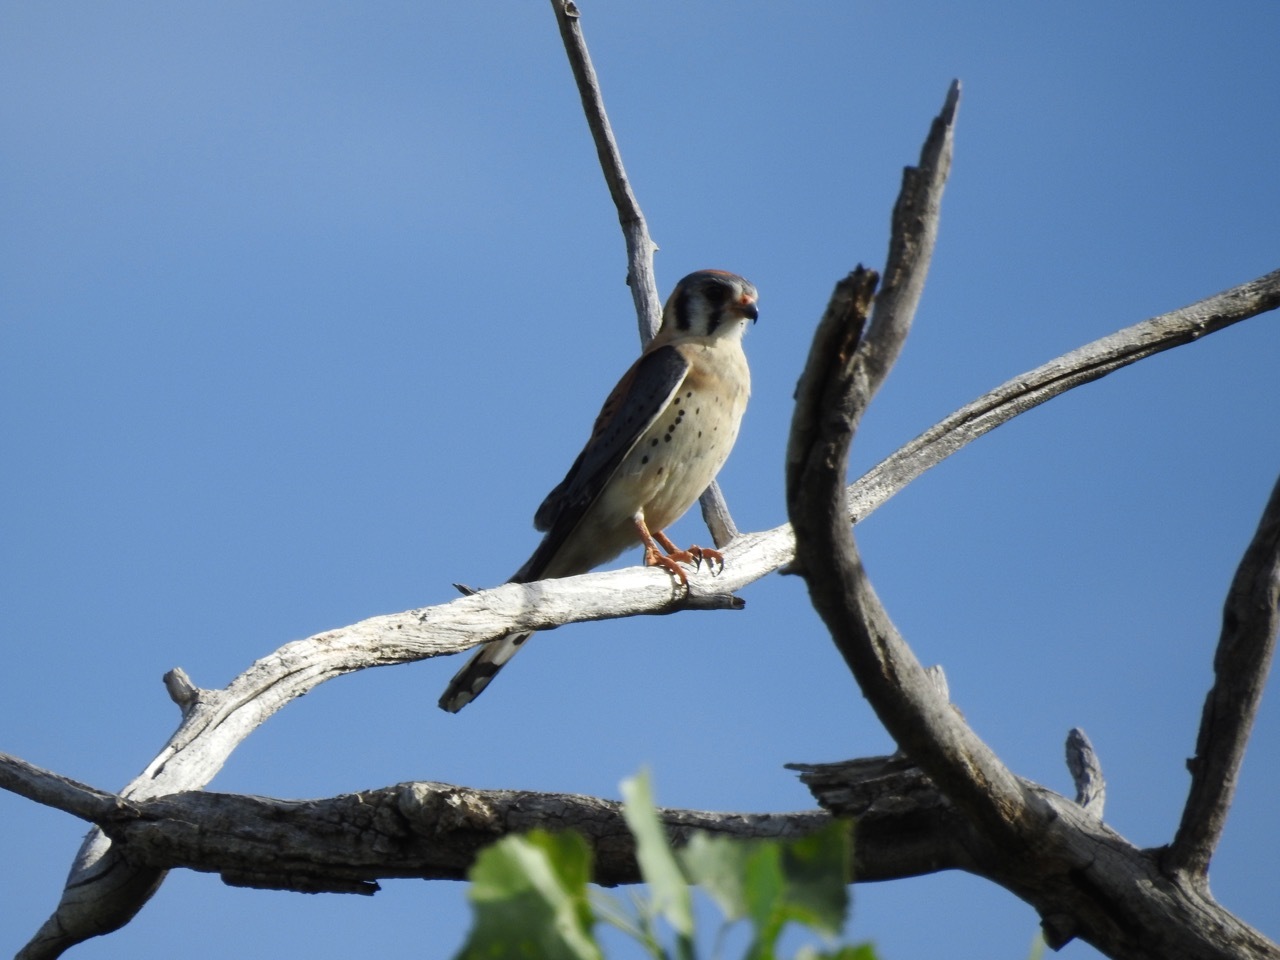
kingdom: Animalia
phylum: Chordata
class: Aves
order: Falconiformes
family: Falconidae
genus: Falco
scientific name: Falco sparverius
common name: American kestrel
